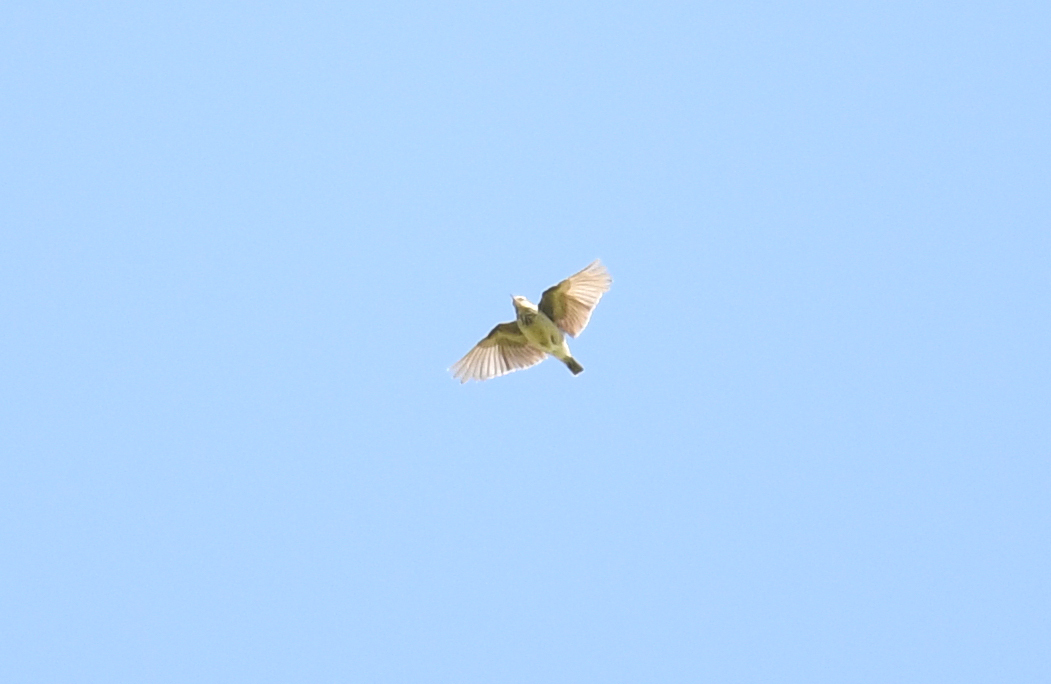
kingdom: Animalia
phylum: Chordata
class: Aves
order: Passeriformes
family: Alaudidae
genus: Lullula
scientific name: Lullula arborea
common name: Woodlark
